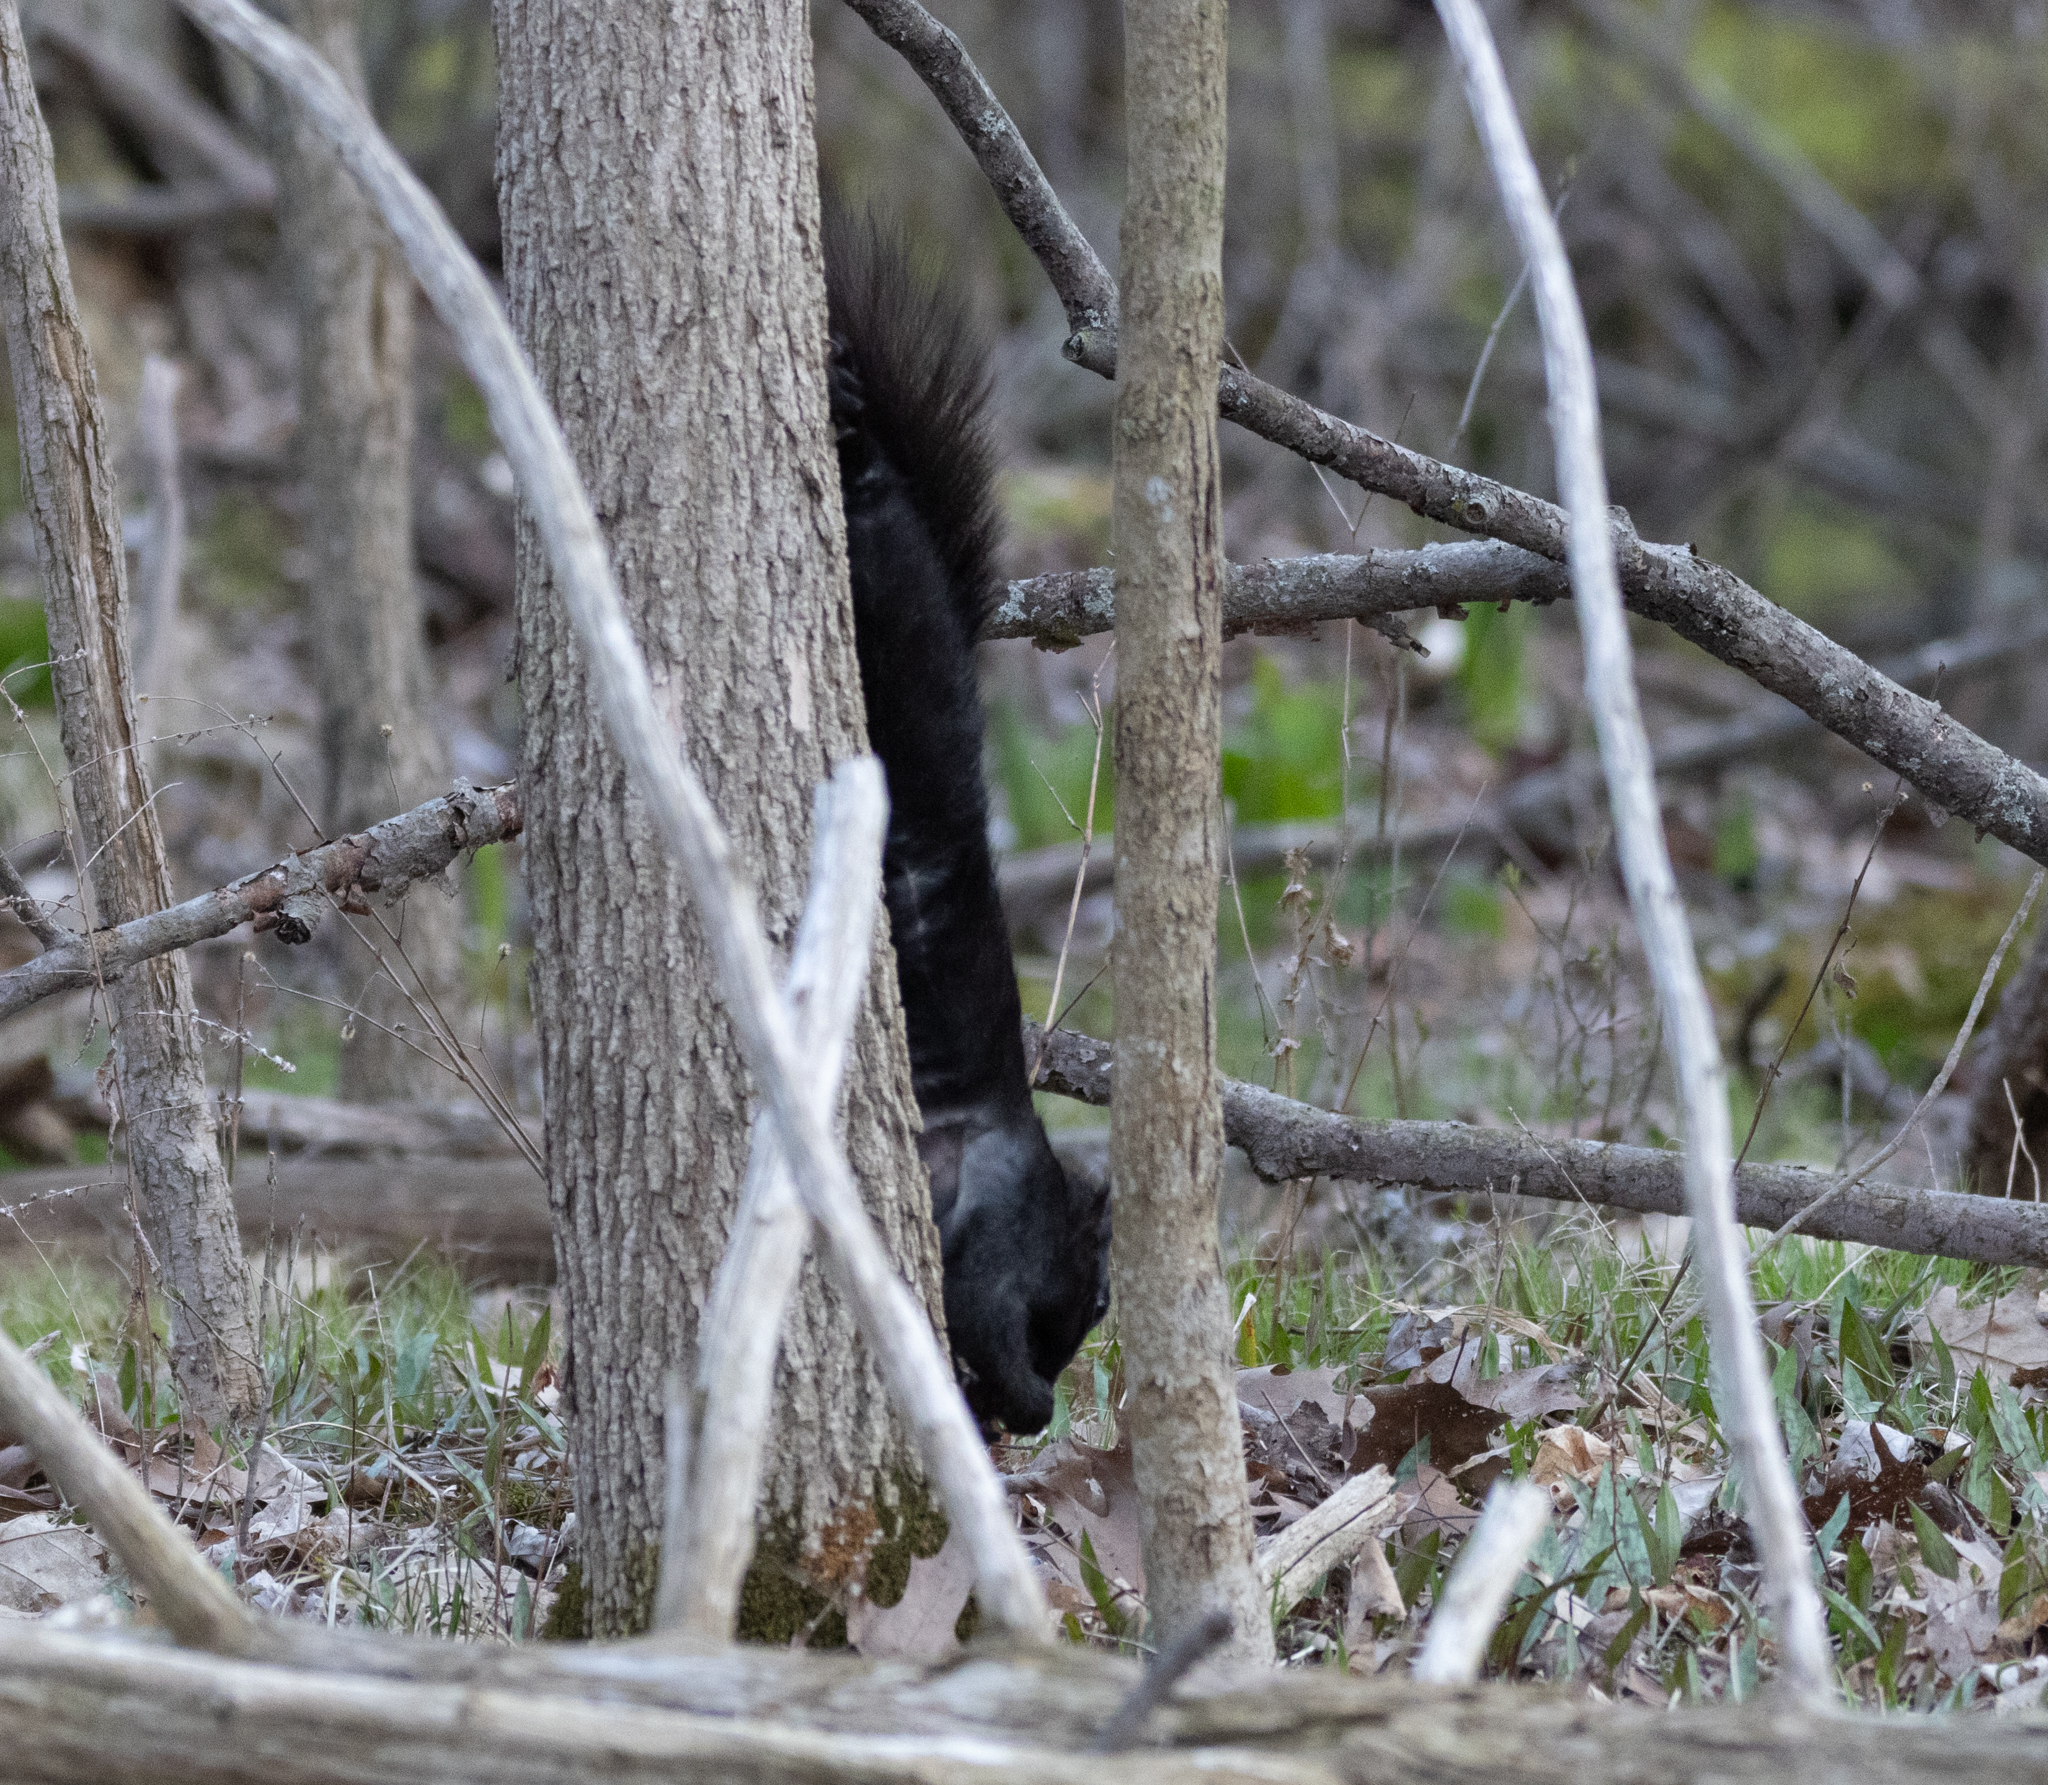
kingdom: Animalia
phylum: Chordata
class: Mammalia
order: Rodentia
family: Sciuridae
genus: Sciurus
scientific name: Sciurus carolinensis
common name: Eastern gray squirrel
